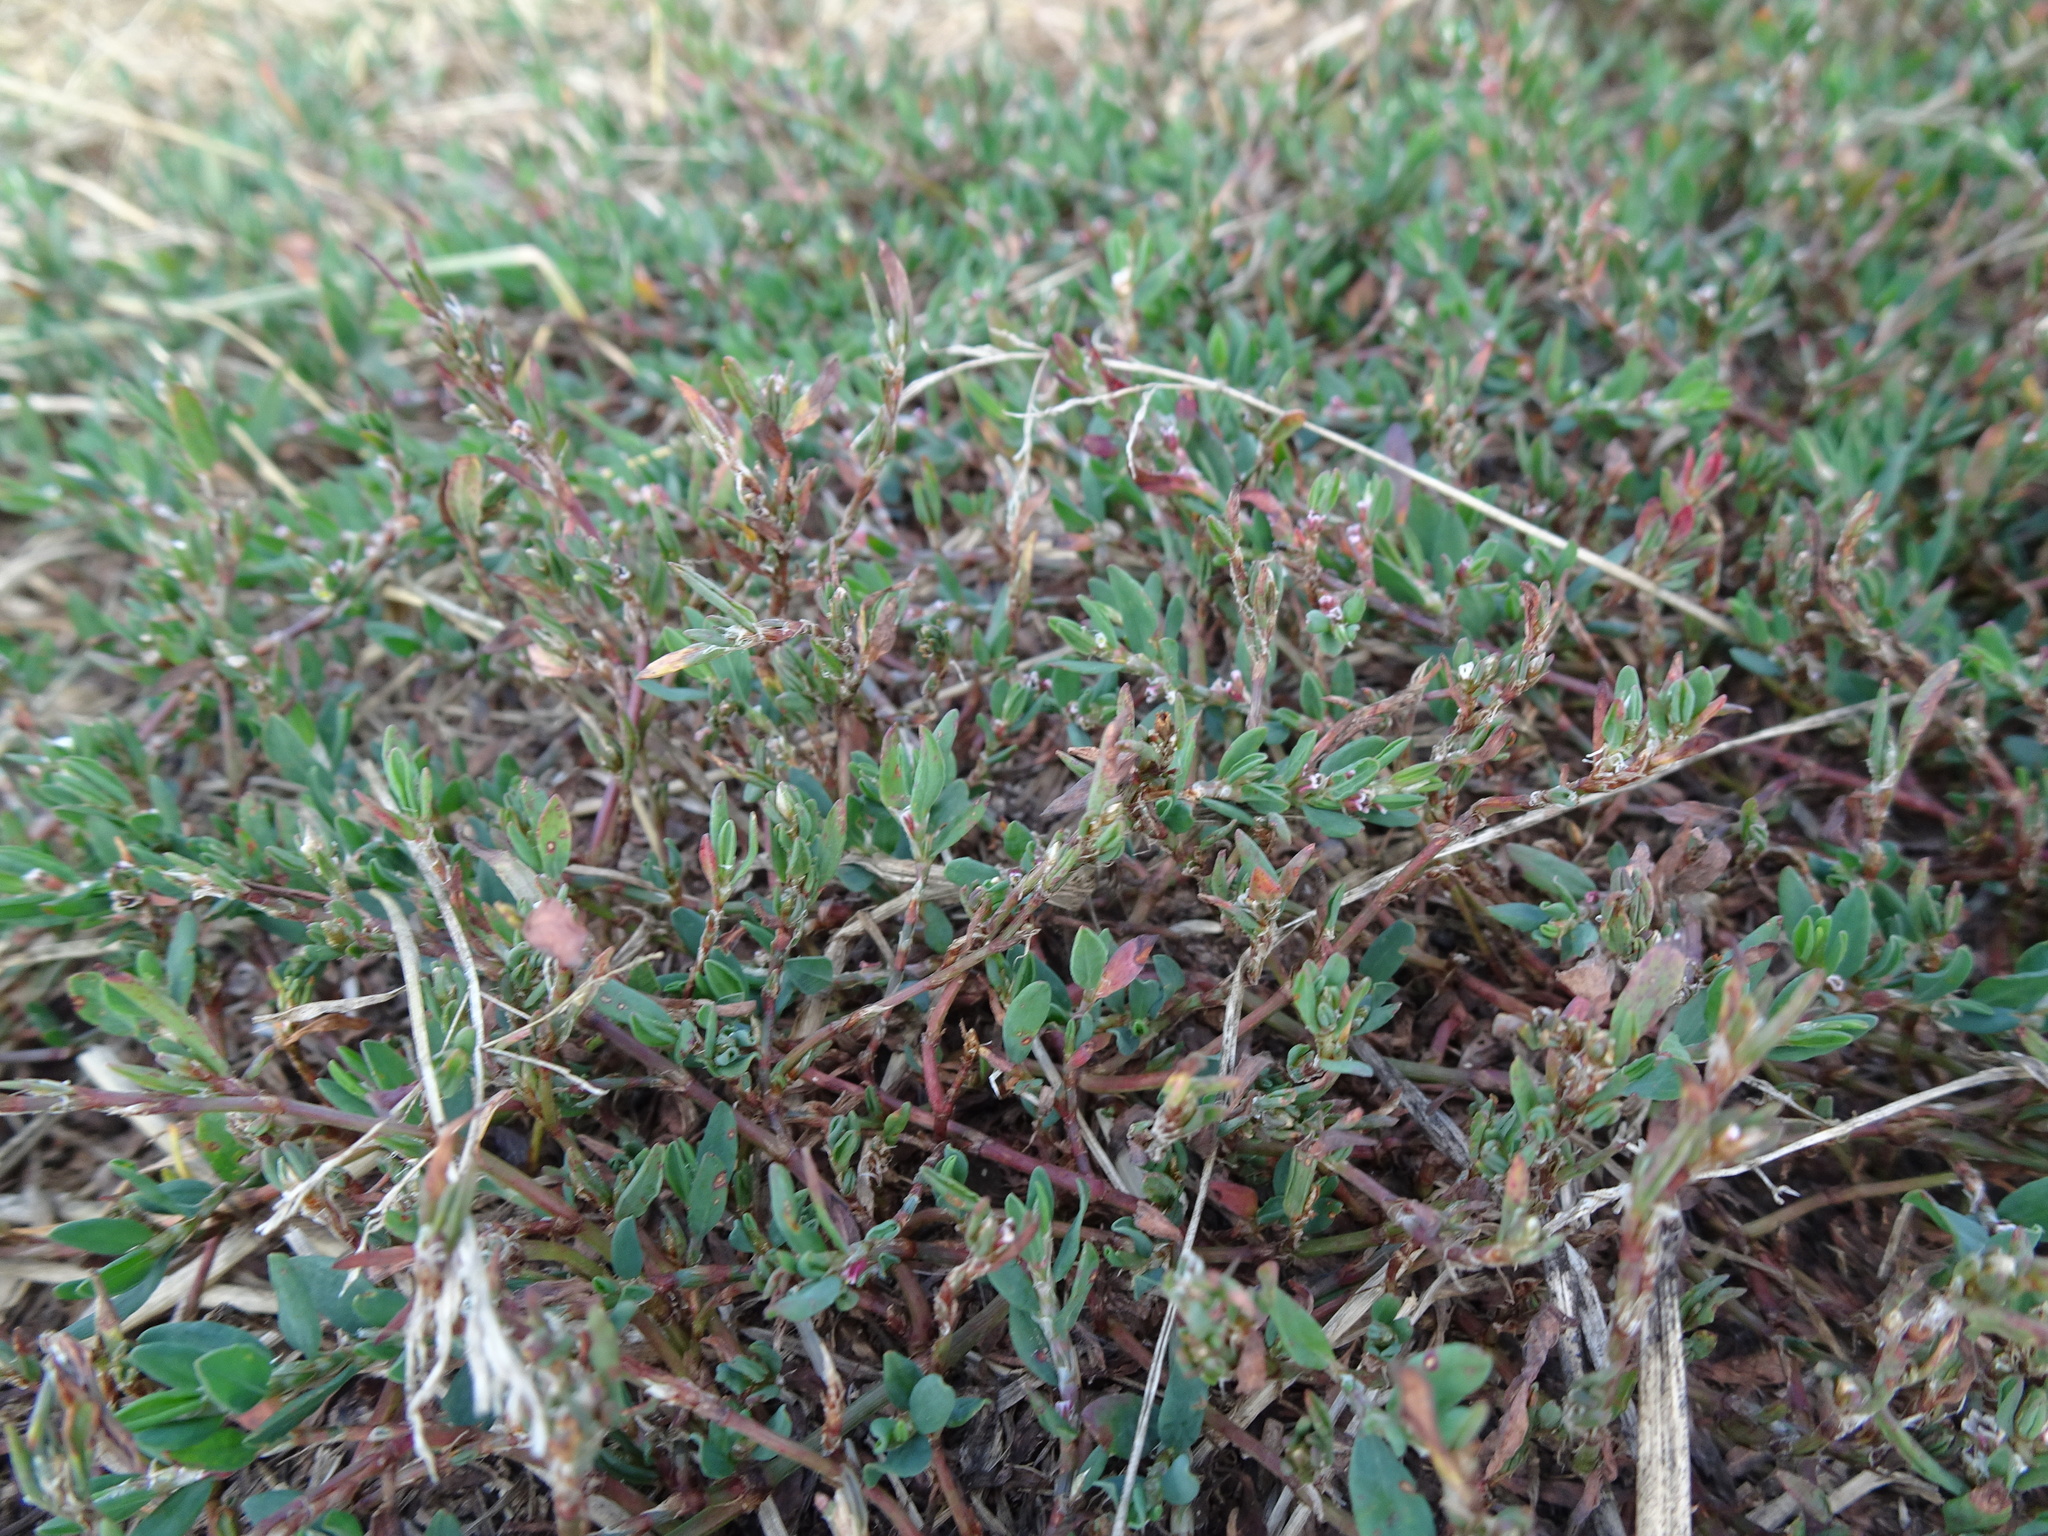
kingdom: Plantae
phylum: Tracheophyta
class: Magnoliopsida
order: Caryophyllales
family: Polygonaceae
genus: Polygonum
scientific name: Polygonum arenastrum
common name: Equal-leaved knotgrass
